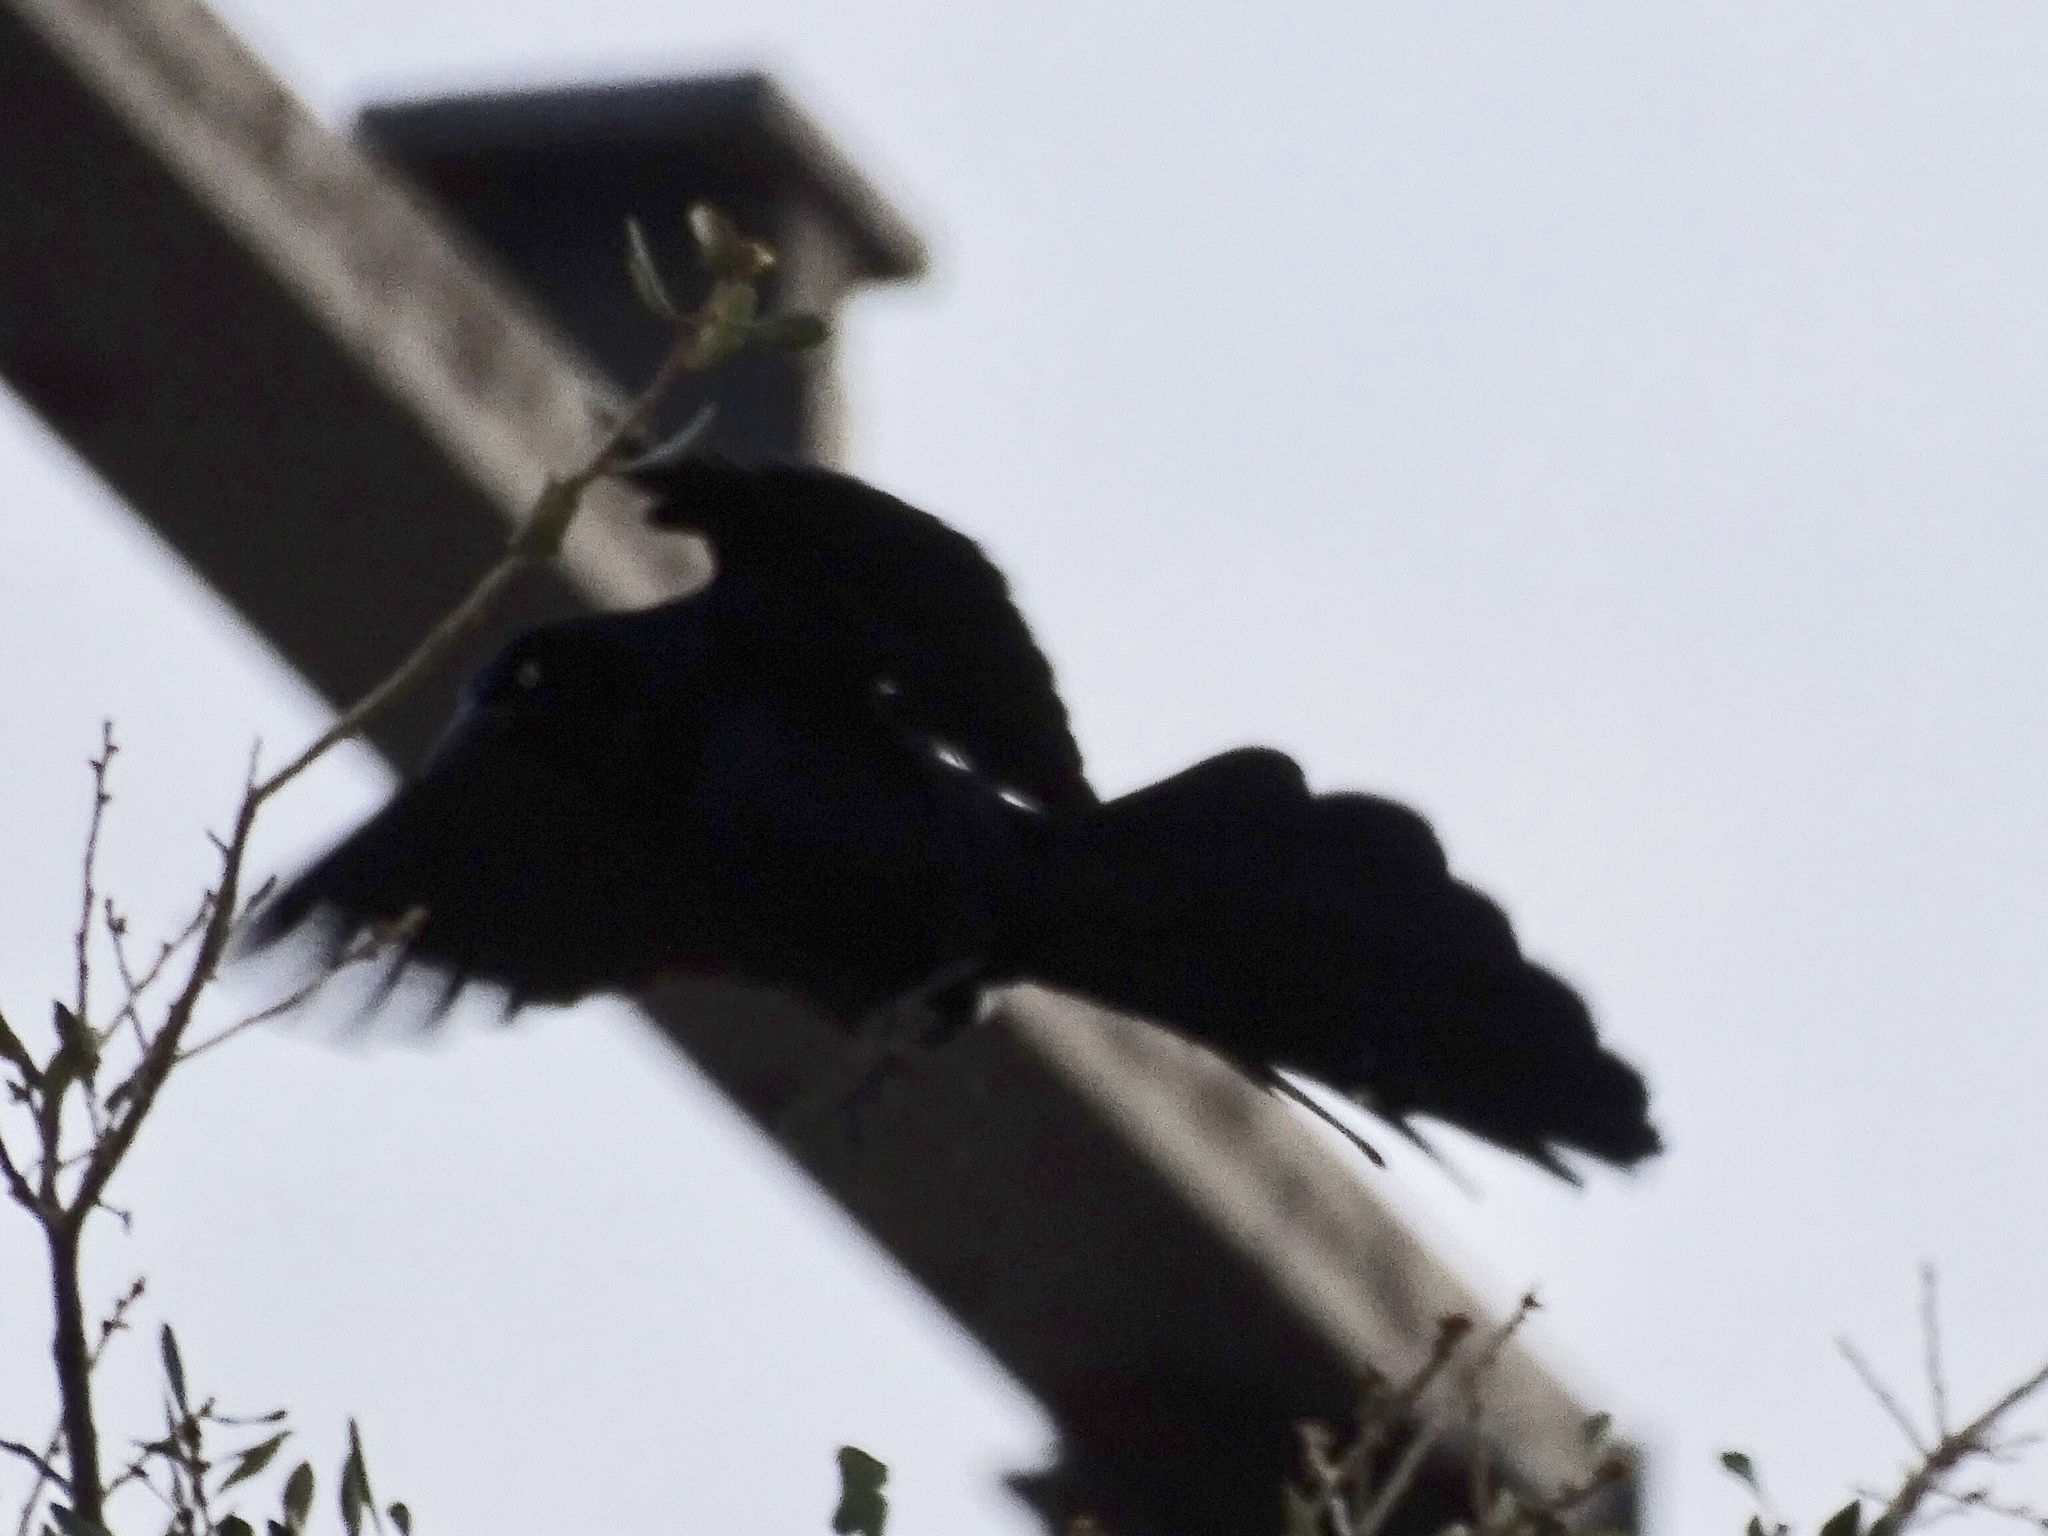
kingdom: Animalia
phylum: Chordata
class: Aves
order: Passeriformes
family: Icteridae
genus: Quiscalus
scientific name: Quiscalus mexicanus
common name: Great-tailed grackle
